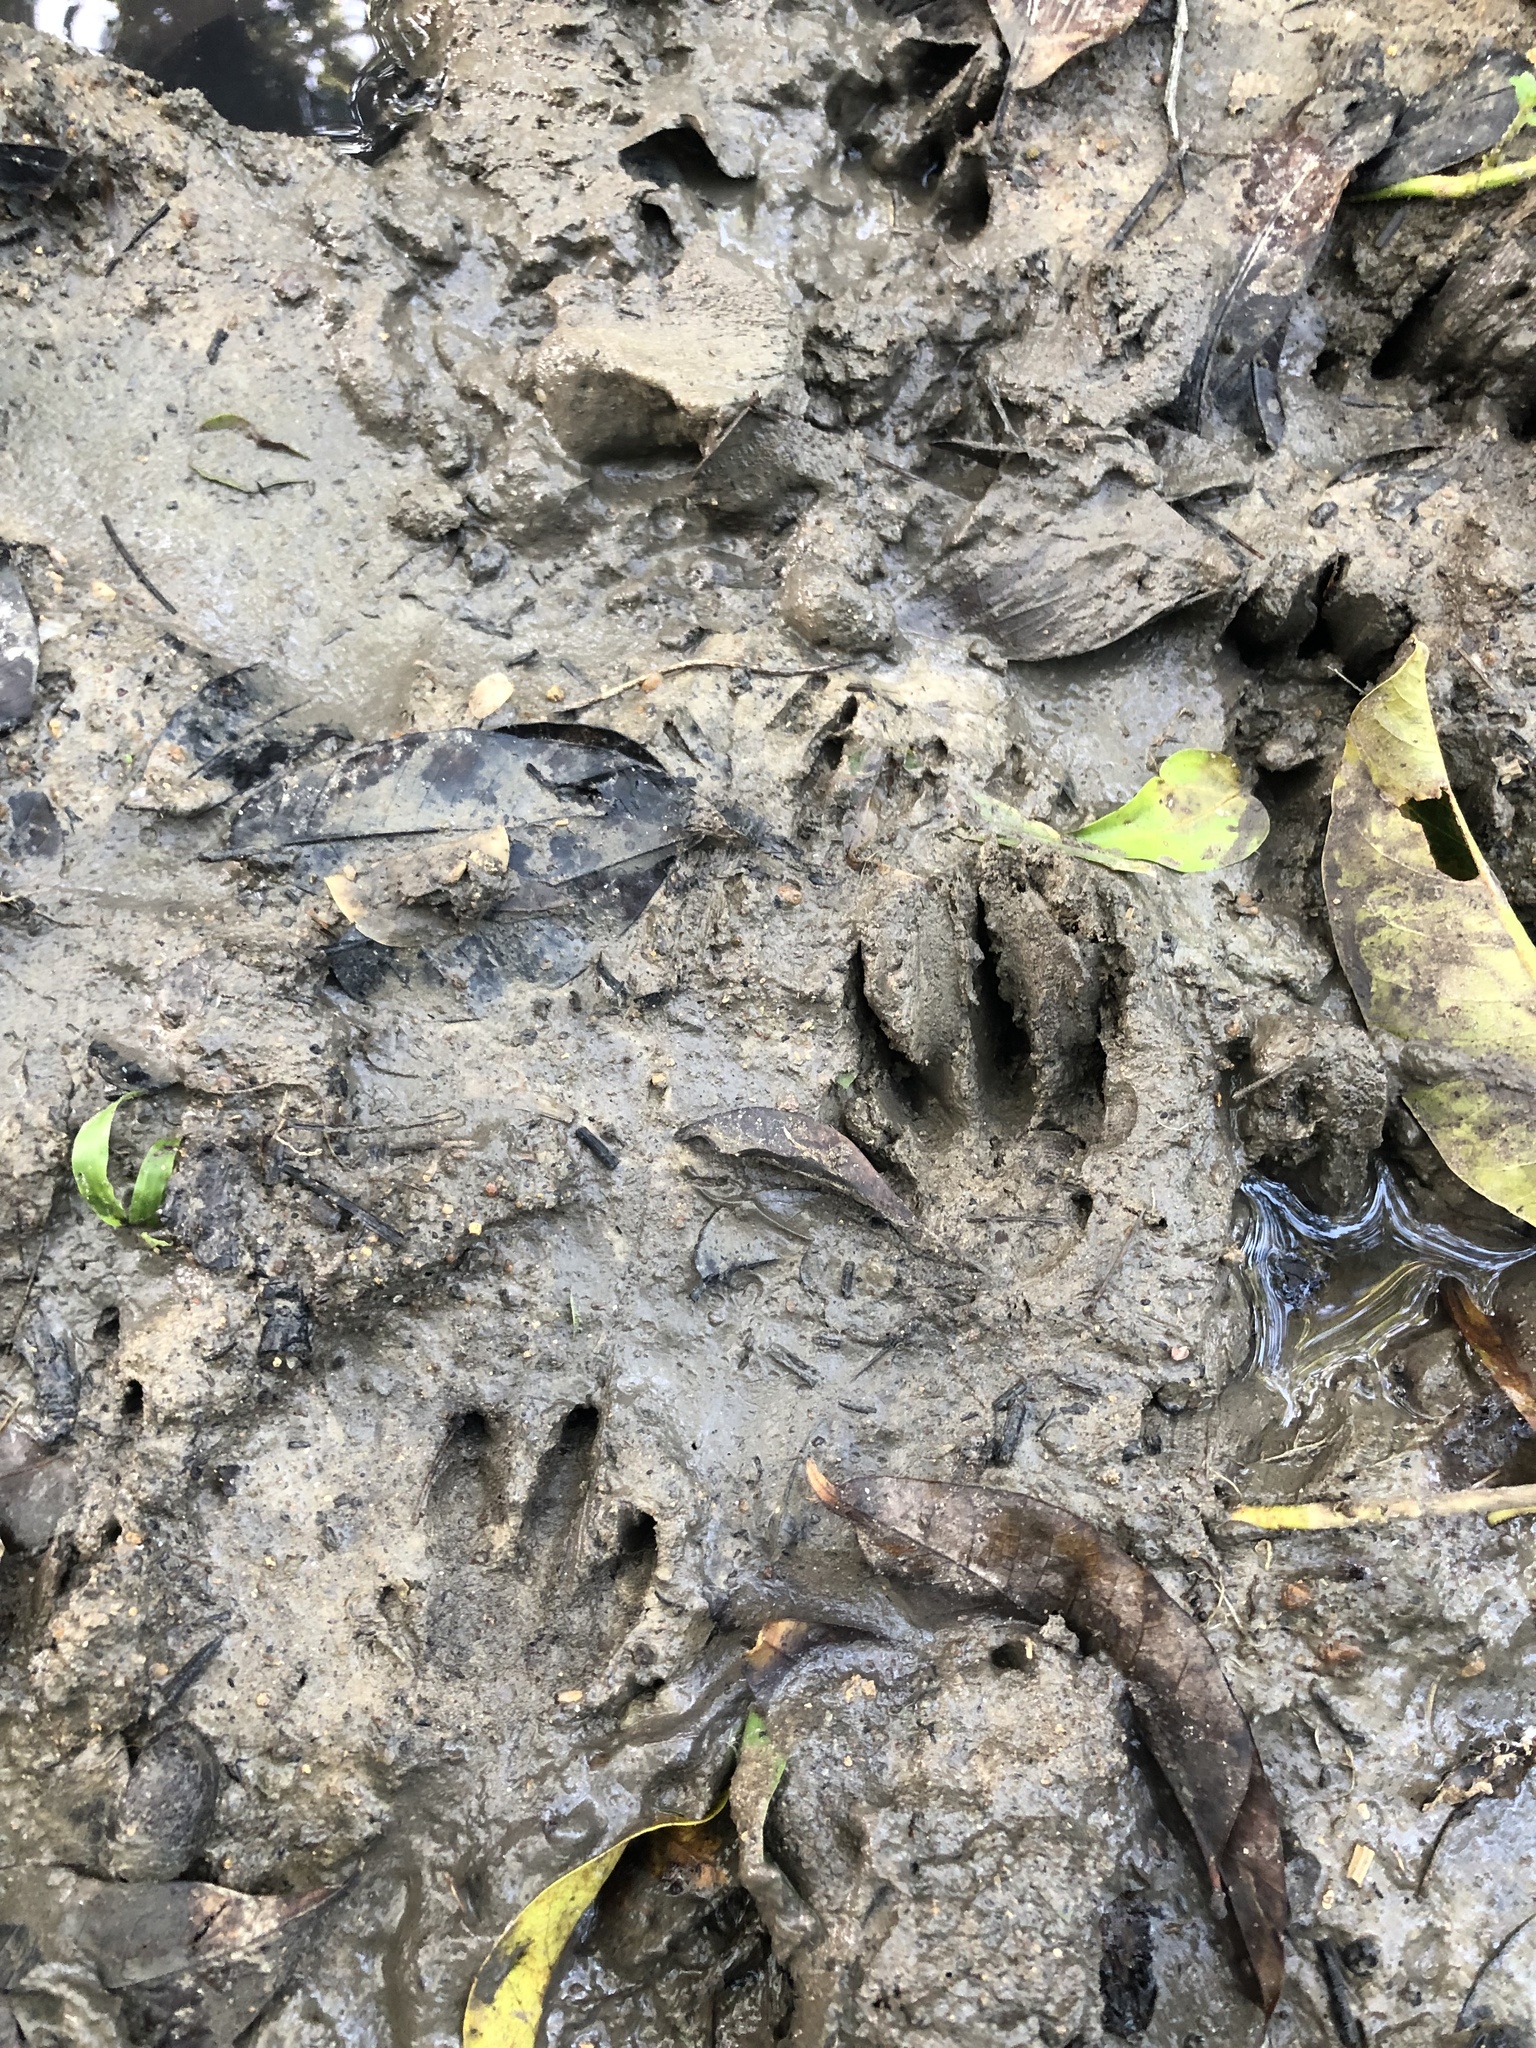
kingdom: Animalia
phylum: Chordata
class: Mammalia
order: Carnivora
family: Procyonidae
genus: Procyon
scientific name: Procyon cancrivorus
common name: Crab-eating raccoon
